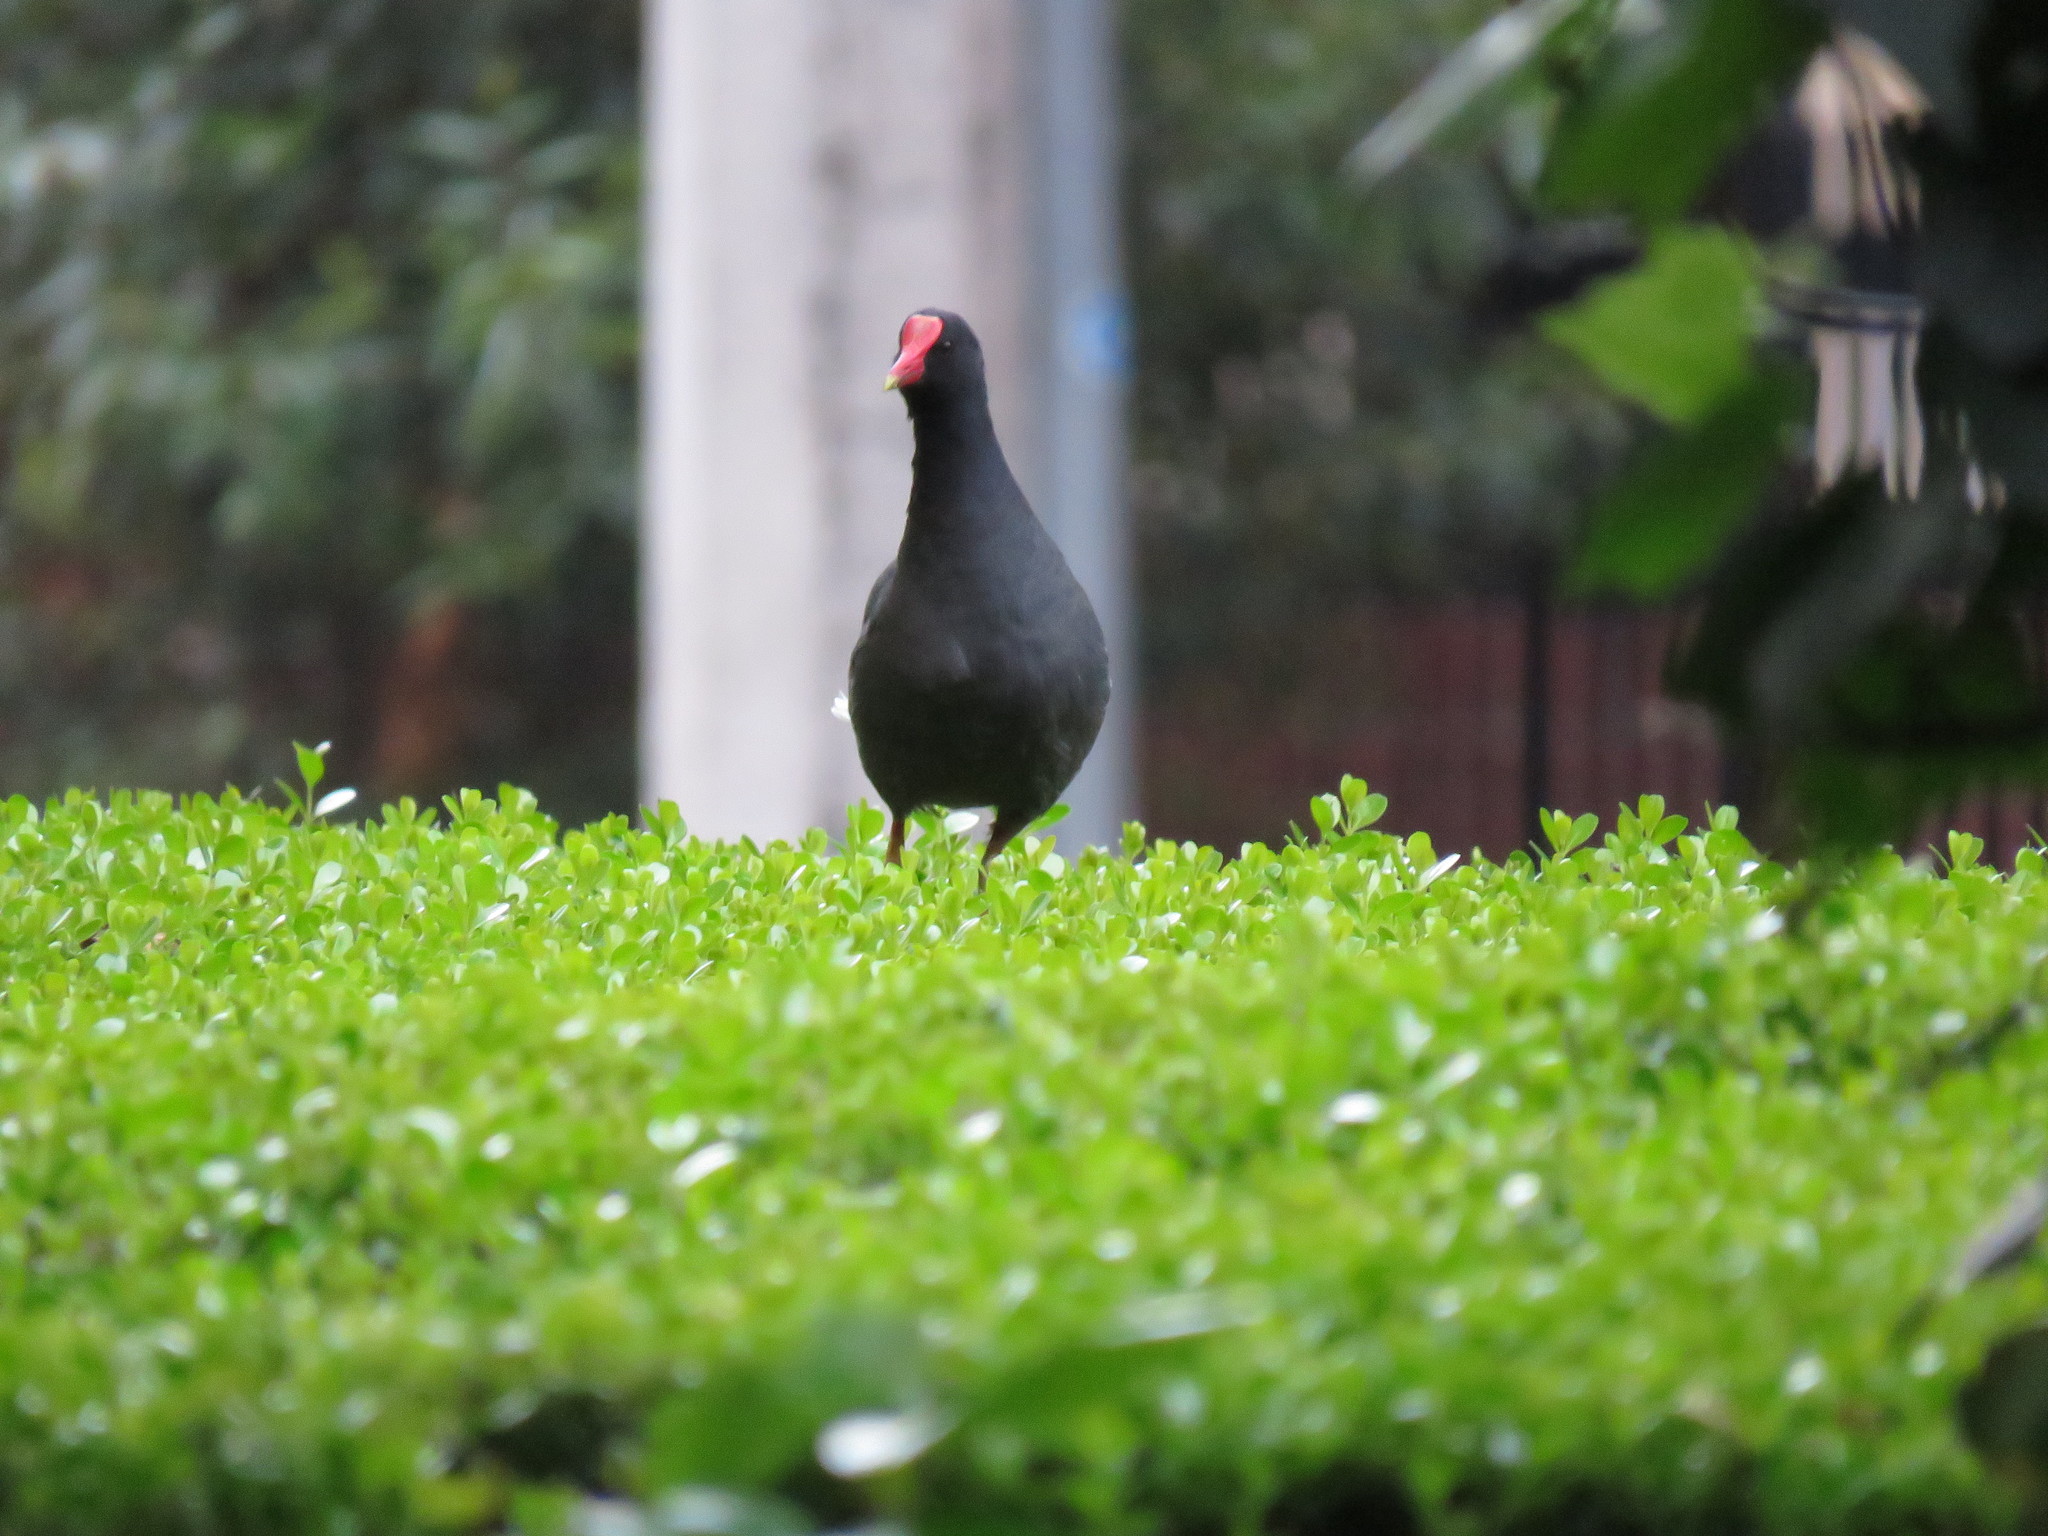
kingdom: Animalia
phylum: Chordata
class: Aves
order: Gruiformes
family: Rallidae
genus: Gallinula
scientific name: Gallinula chloropus
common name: Common moorhen
